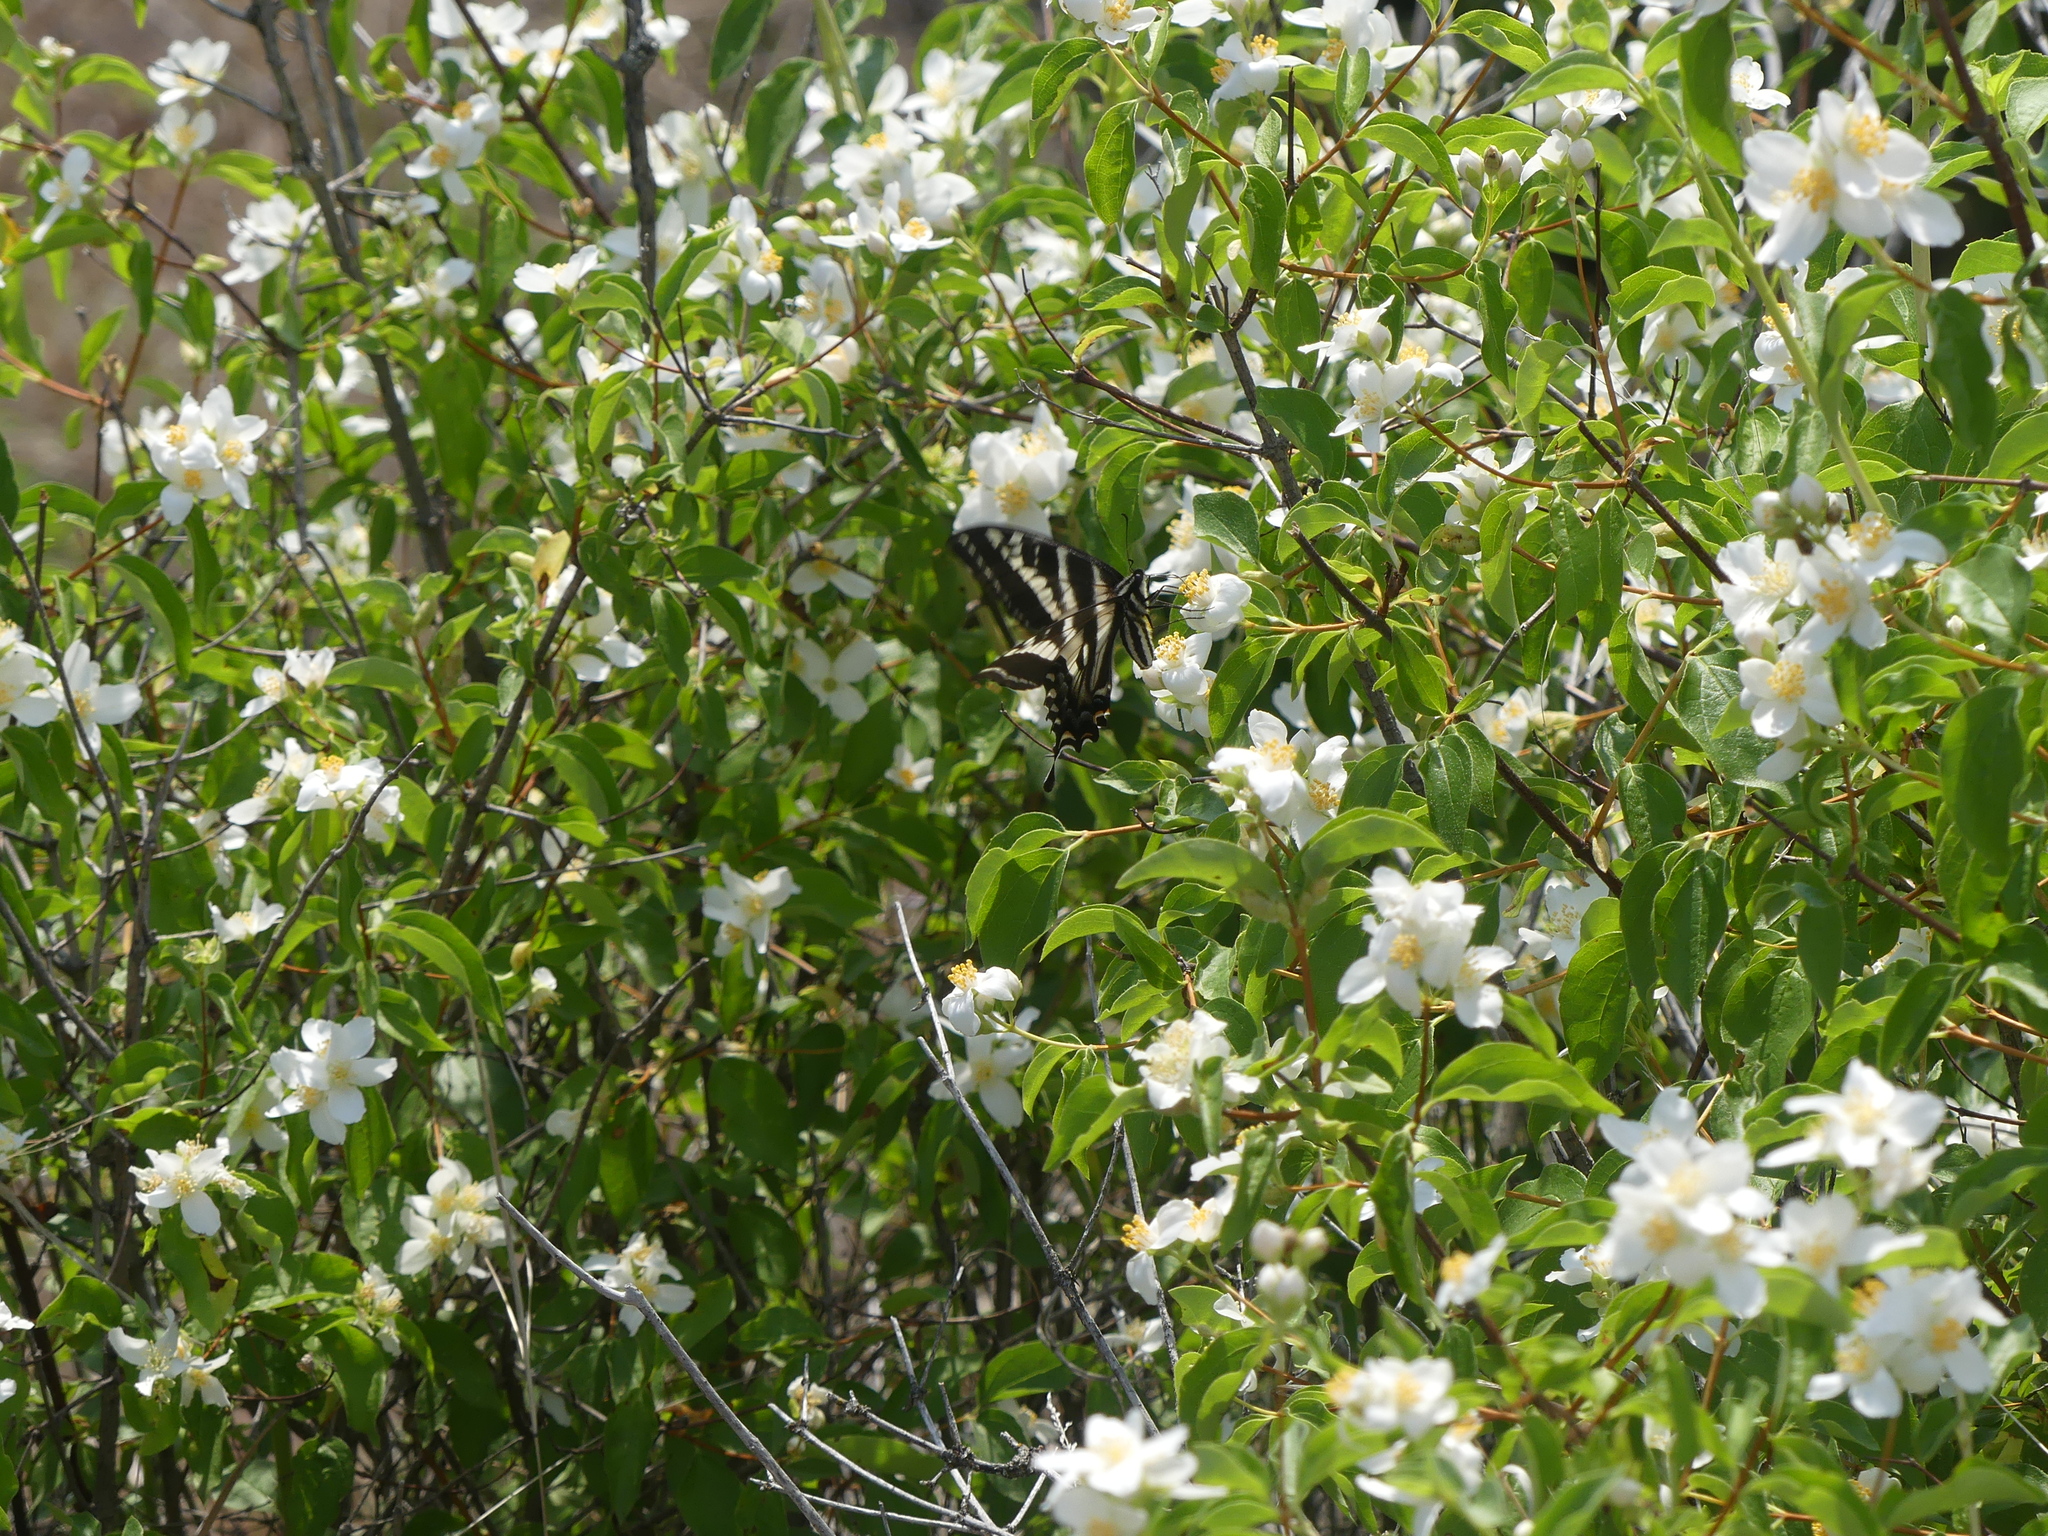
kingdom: Animalia
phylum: Arthropoda
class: Insecta
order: Lepidoptera
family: Papilionidae
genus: Papilio
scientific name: Papilio eurymedon
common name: Pale tiger swallowtail
